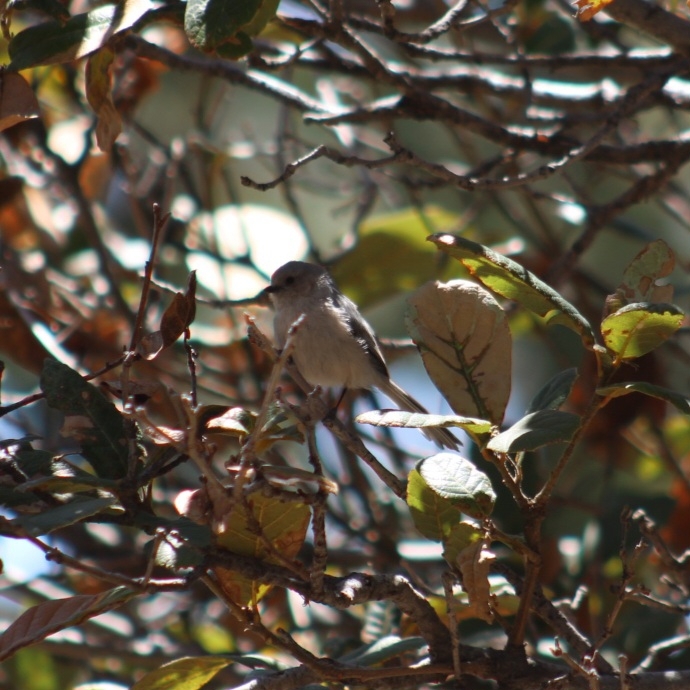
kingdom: Animalia
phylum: Chordata
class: Aves
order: Passeriformes
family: Aegithalidae
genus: Psaltriparus
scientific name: Psaltriparus minimus
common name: American bushtit
